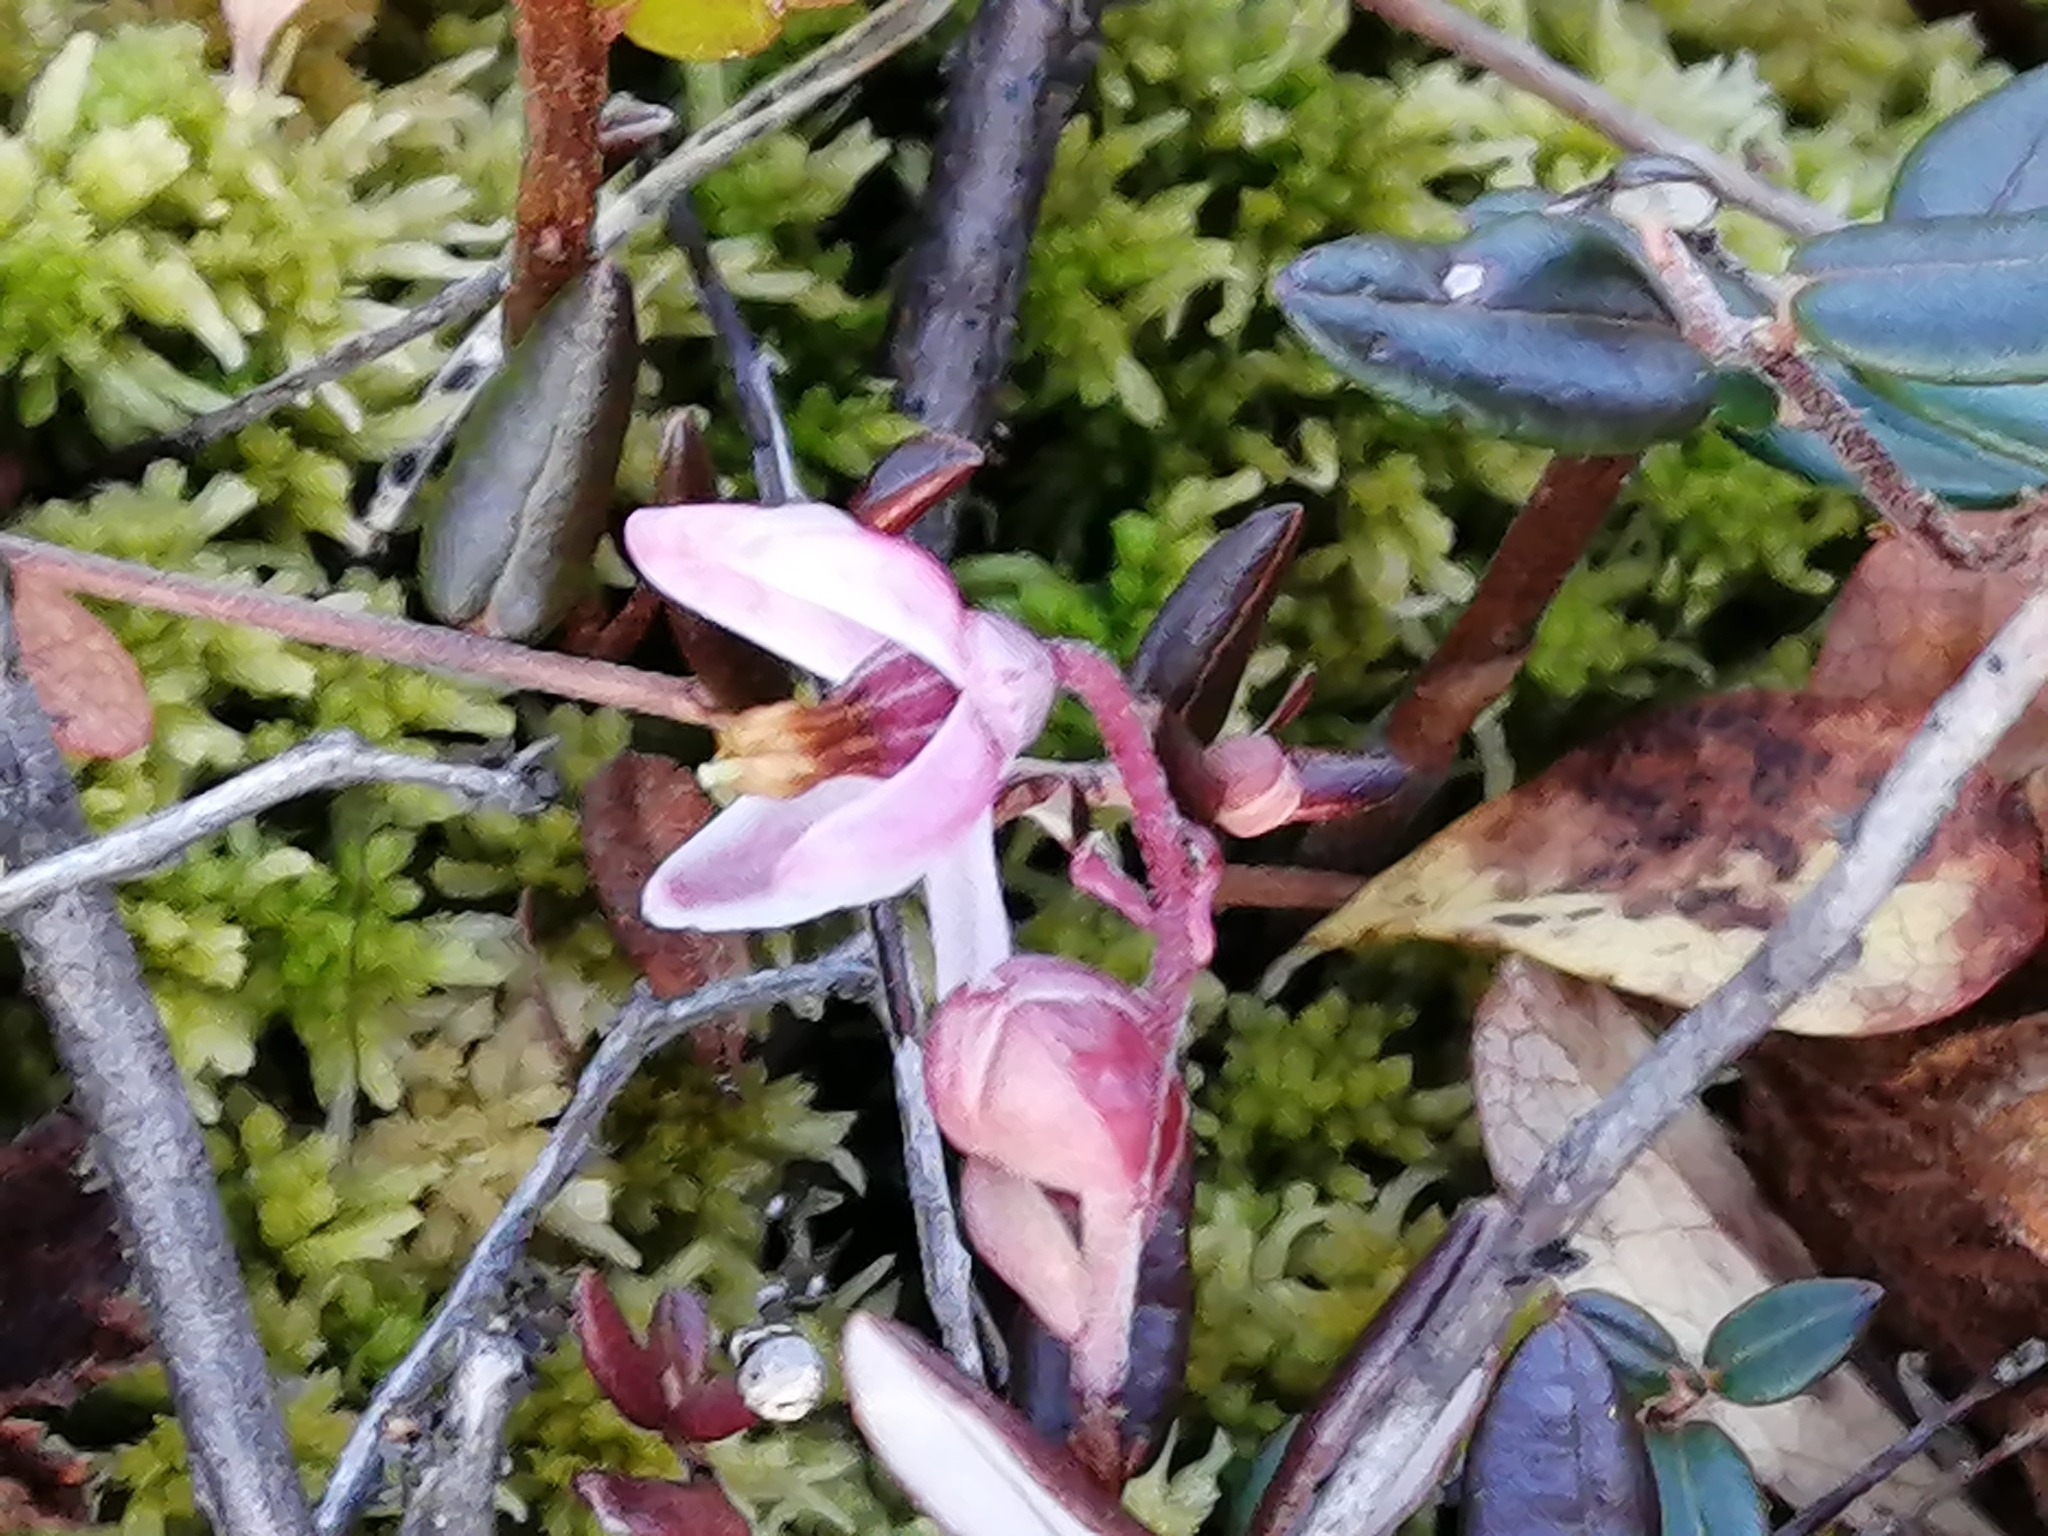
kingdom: Plantae
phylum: Tracheophyta
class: Magnoliopsida
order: Ericales
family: Ericaceae
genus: Vaccinium
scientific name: Vaccinium oxycoccos
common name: Cranberry
